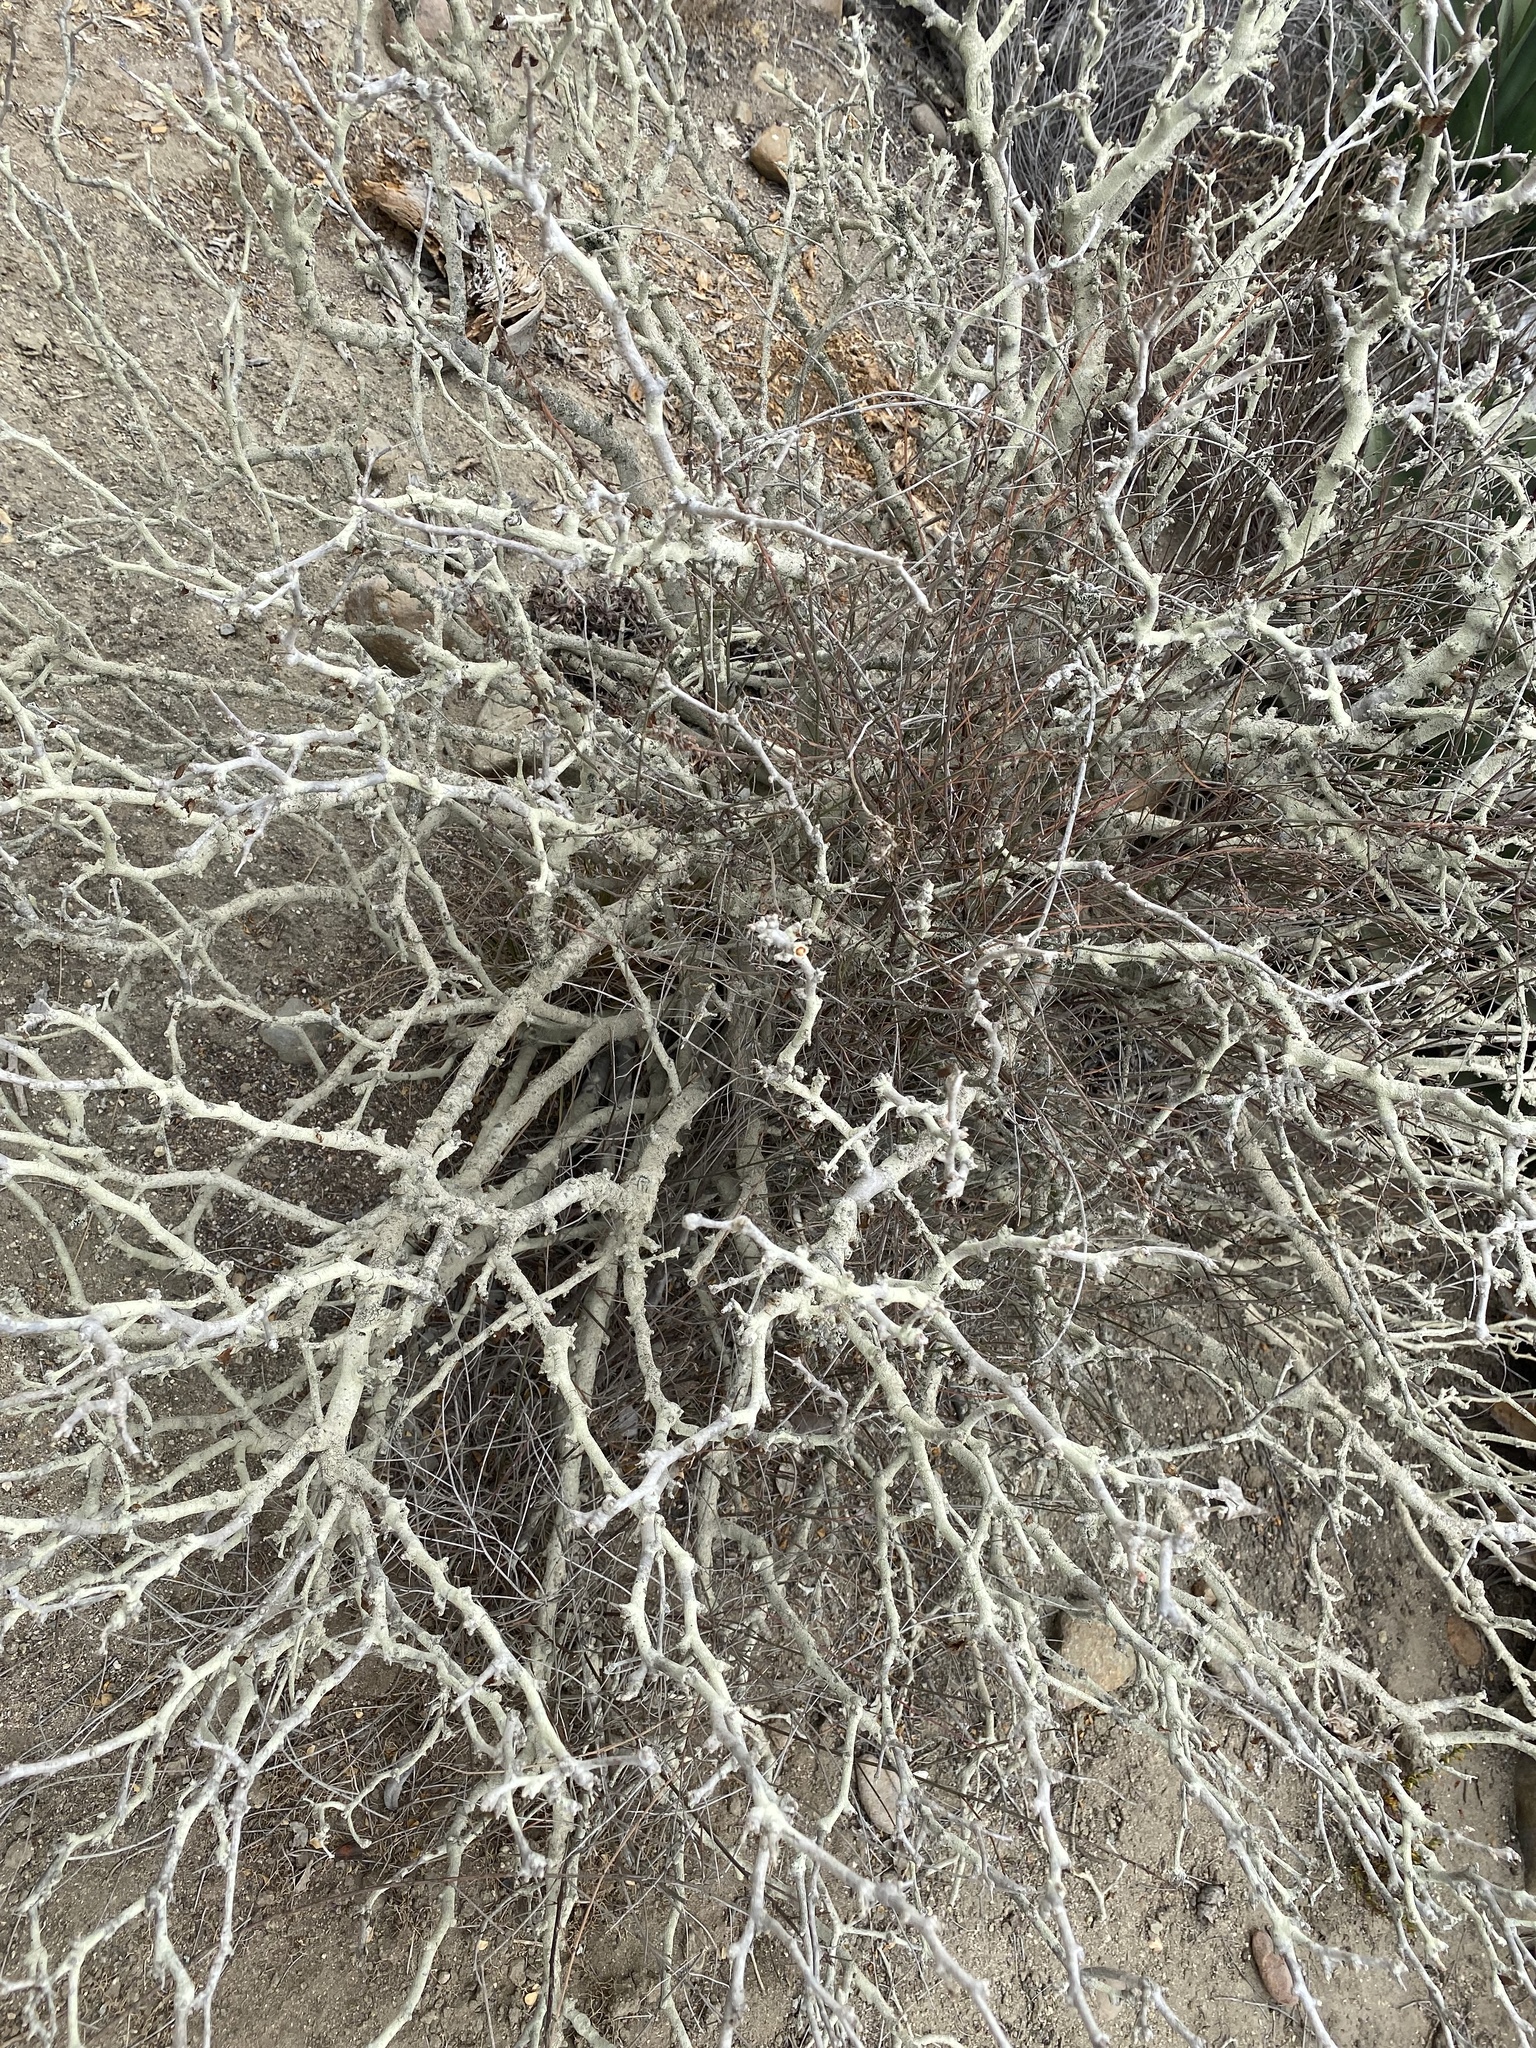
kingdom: Plantae
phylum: Tracheophyta
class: Magnoliopsida
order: Malpighiales
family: Euphorbiaceae
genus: Euphorbia
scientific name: Euphorbia misera
